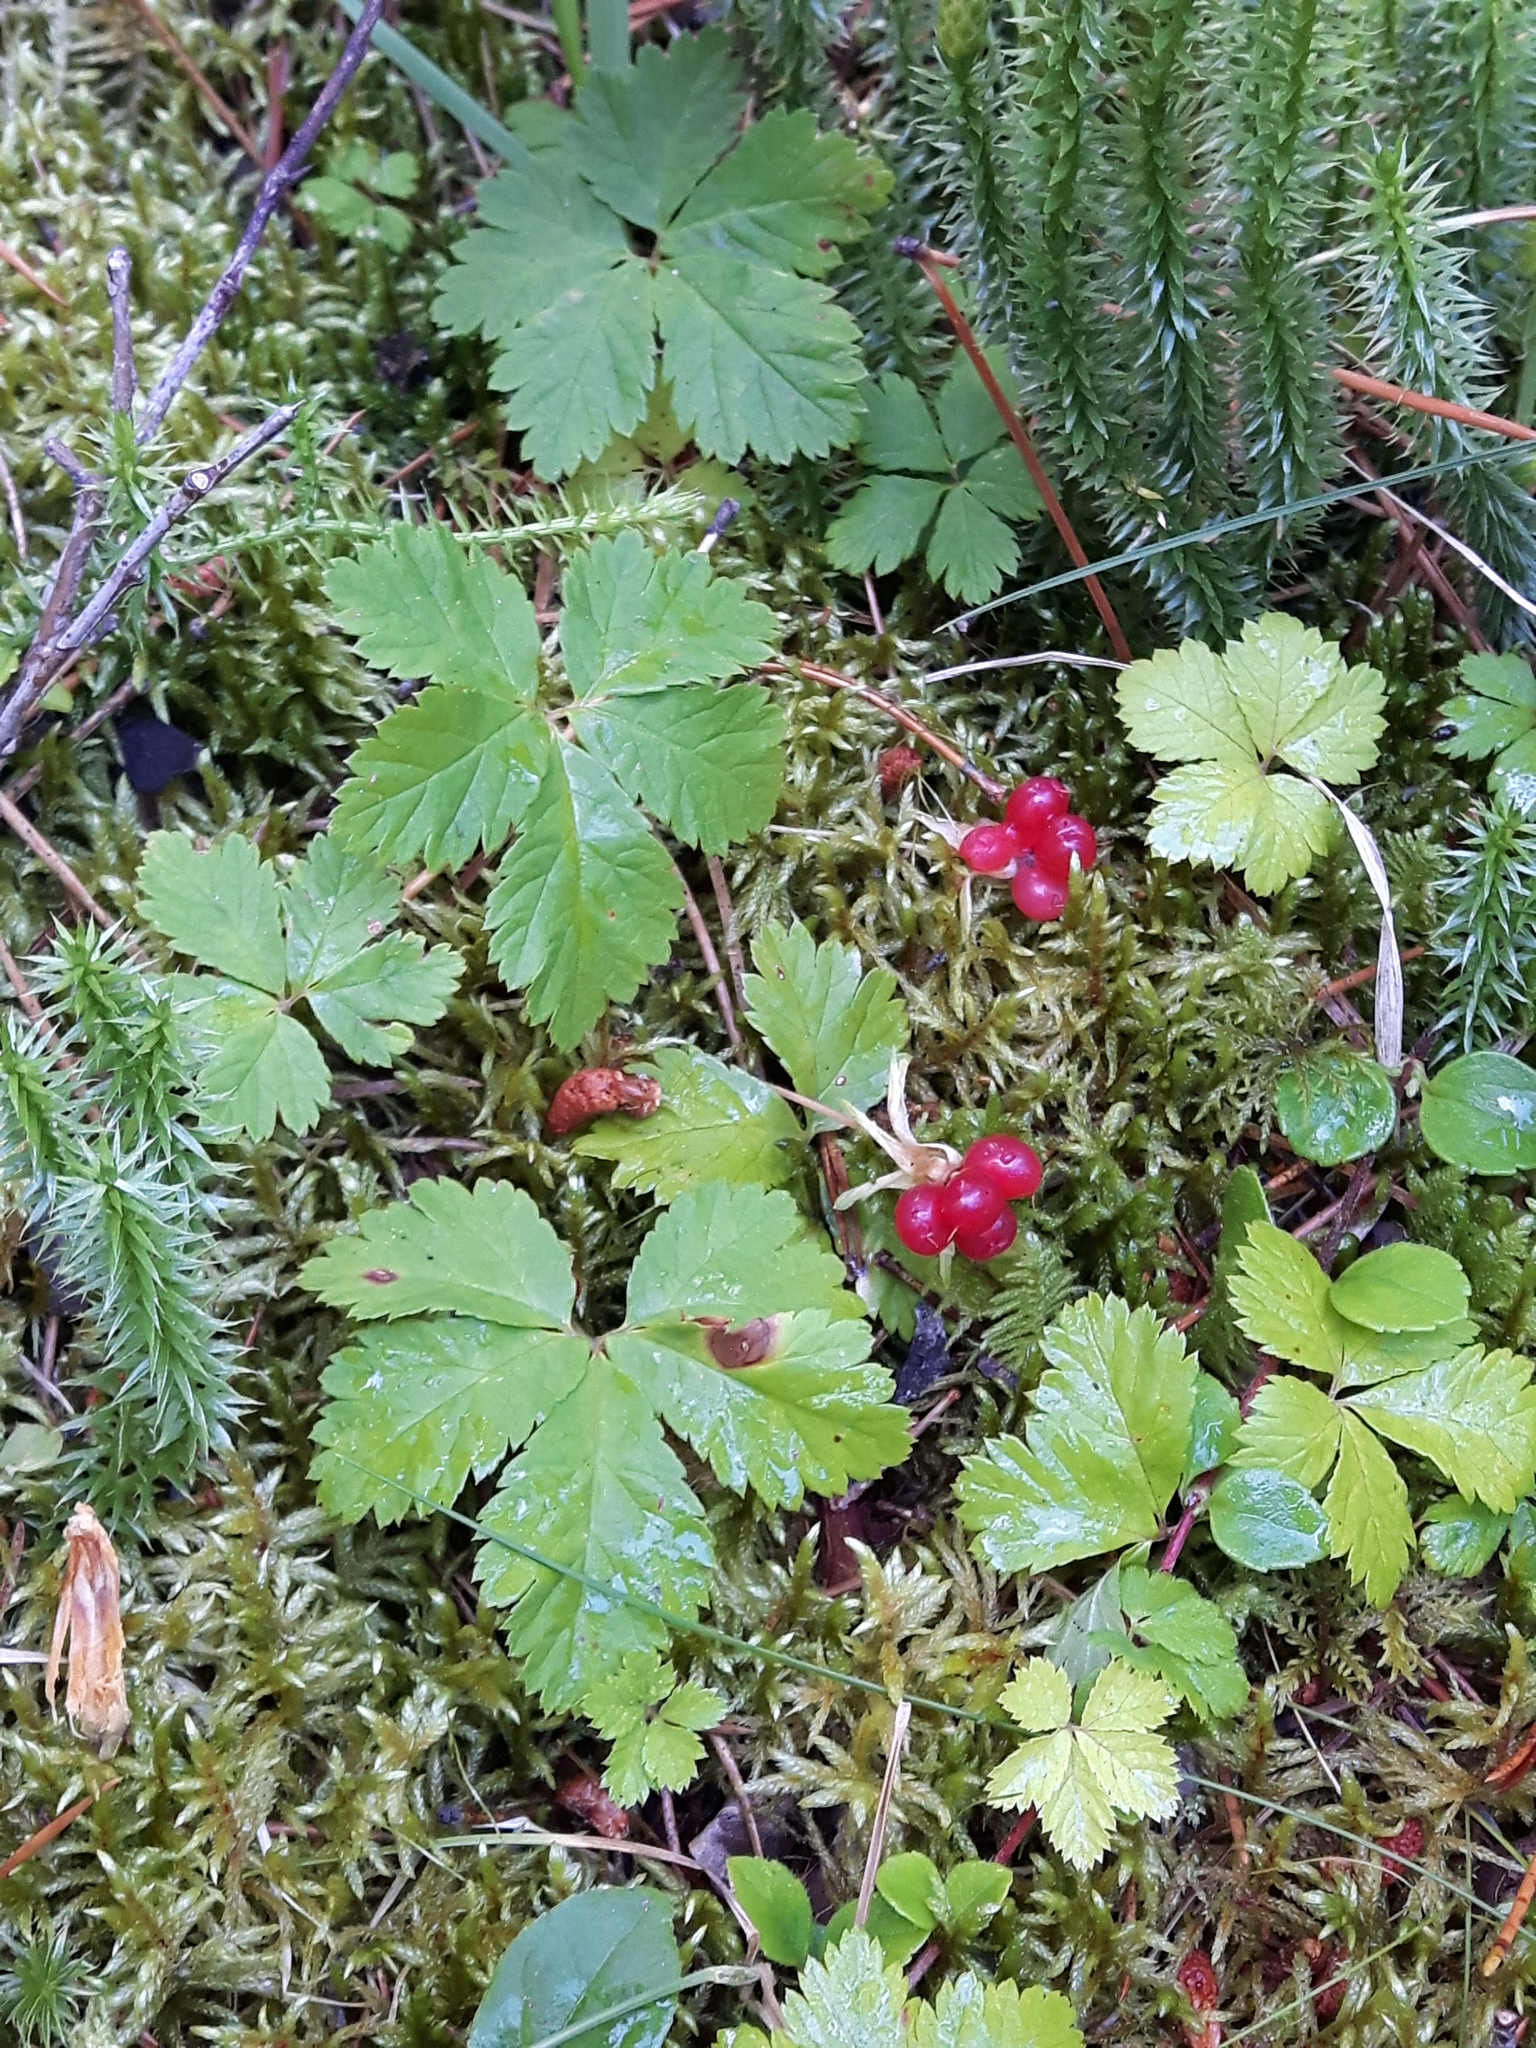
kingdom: Plantae
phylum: Tracheophyta
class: Magnoliopsida
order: Rosales
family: Rosaceae
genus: Rubus
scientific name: Rubus pedatus
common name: Creeping raspberry
